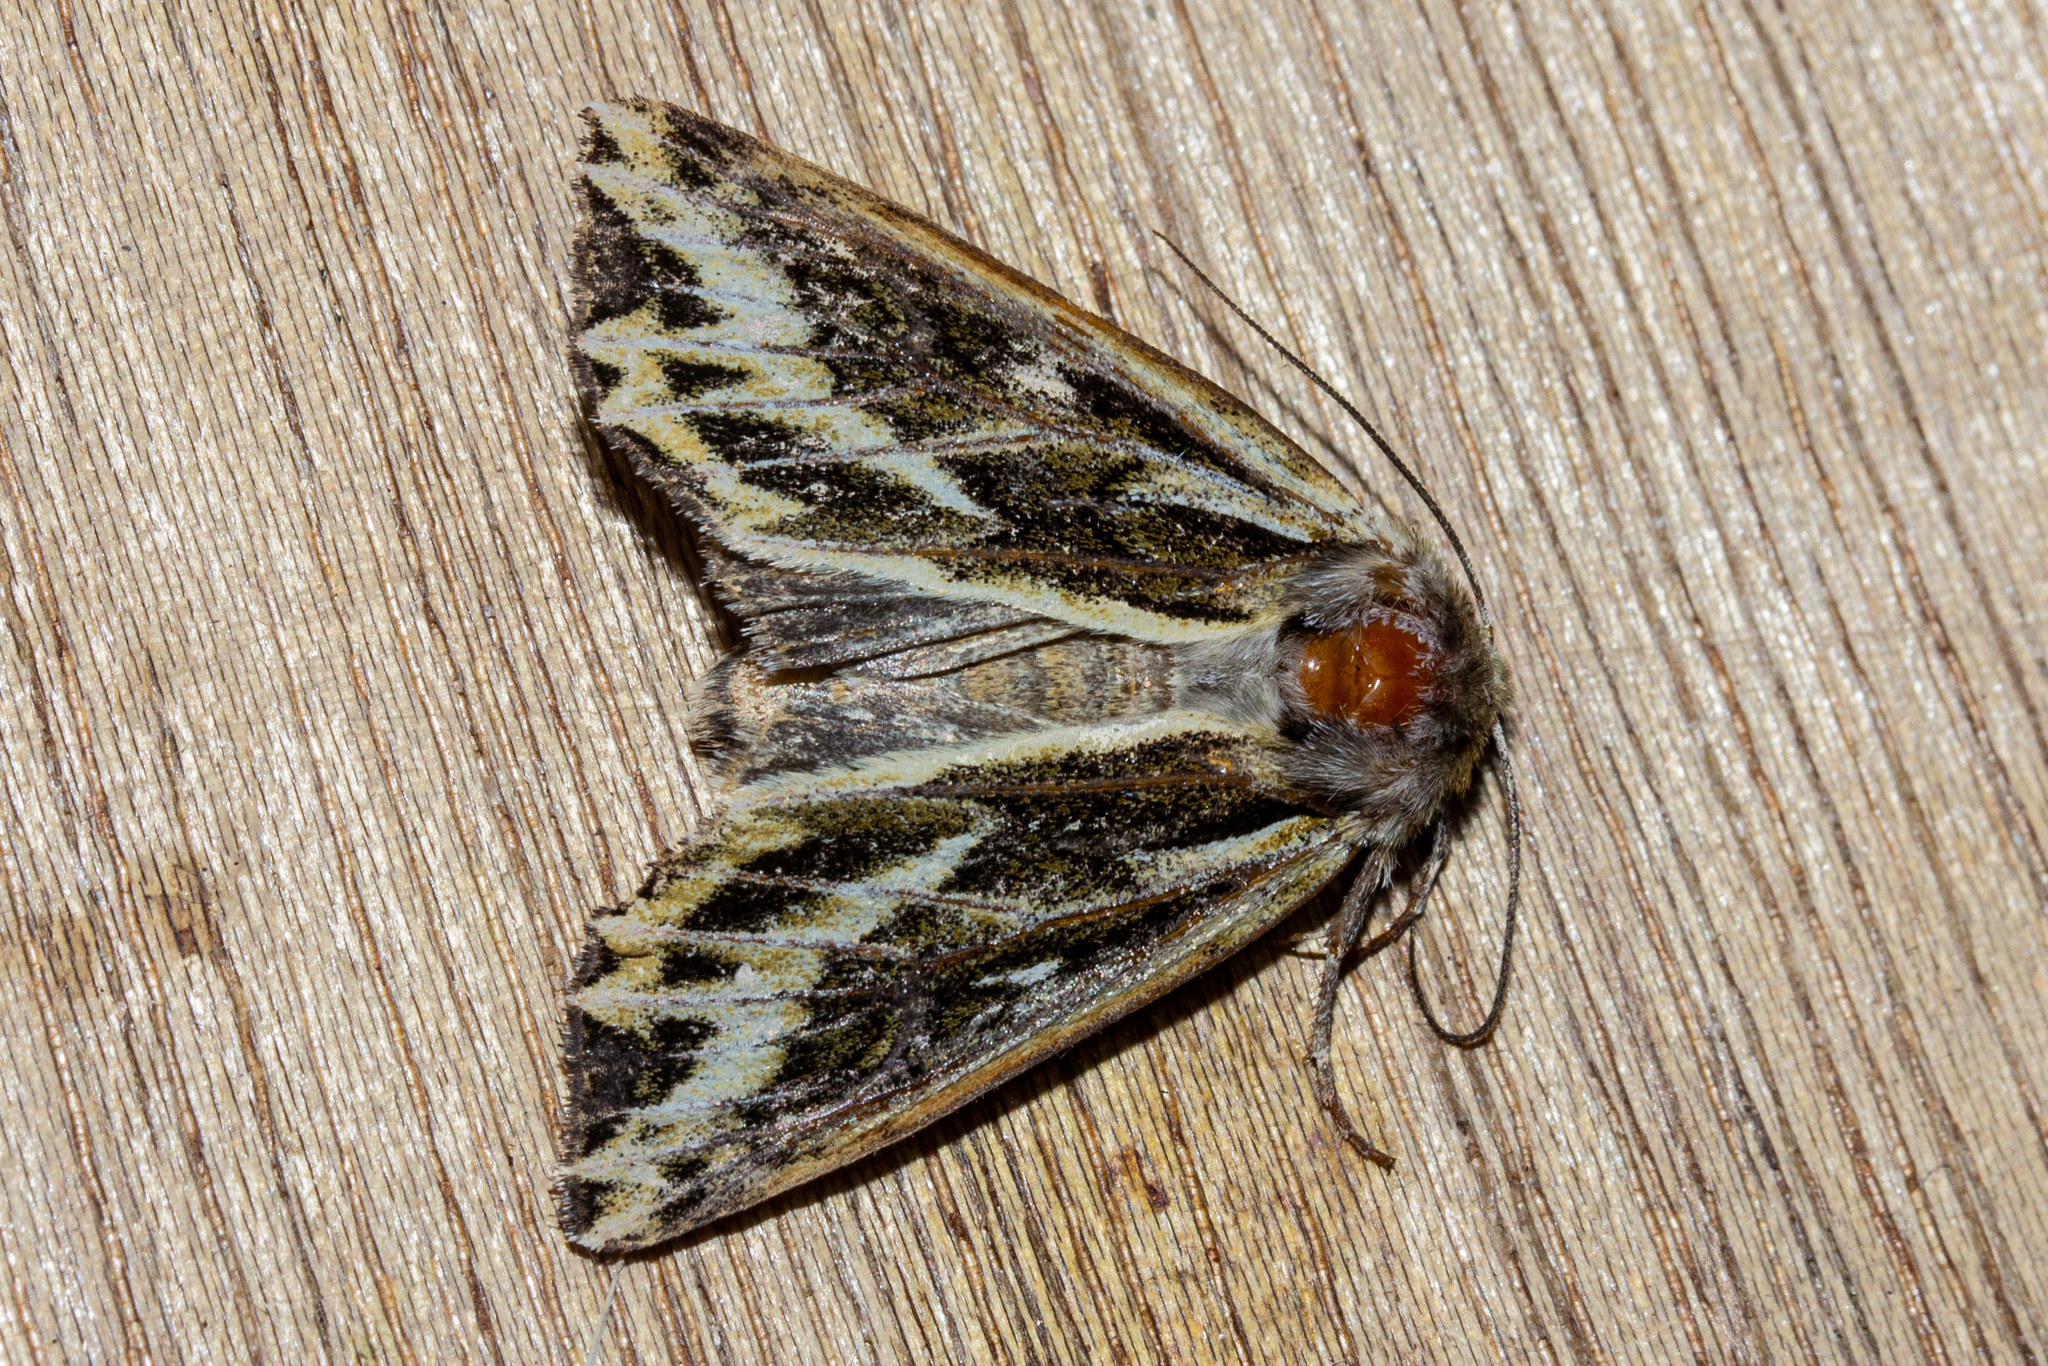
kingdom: Animalia
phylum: Arthropoda
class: Insecta
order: Lepidoptera
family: Noctuidae
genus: Ichneutica
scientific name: Ichneutica
